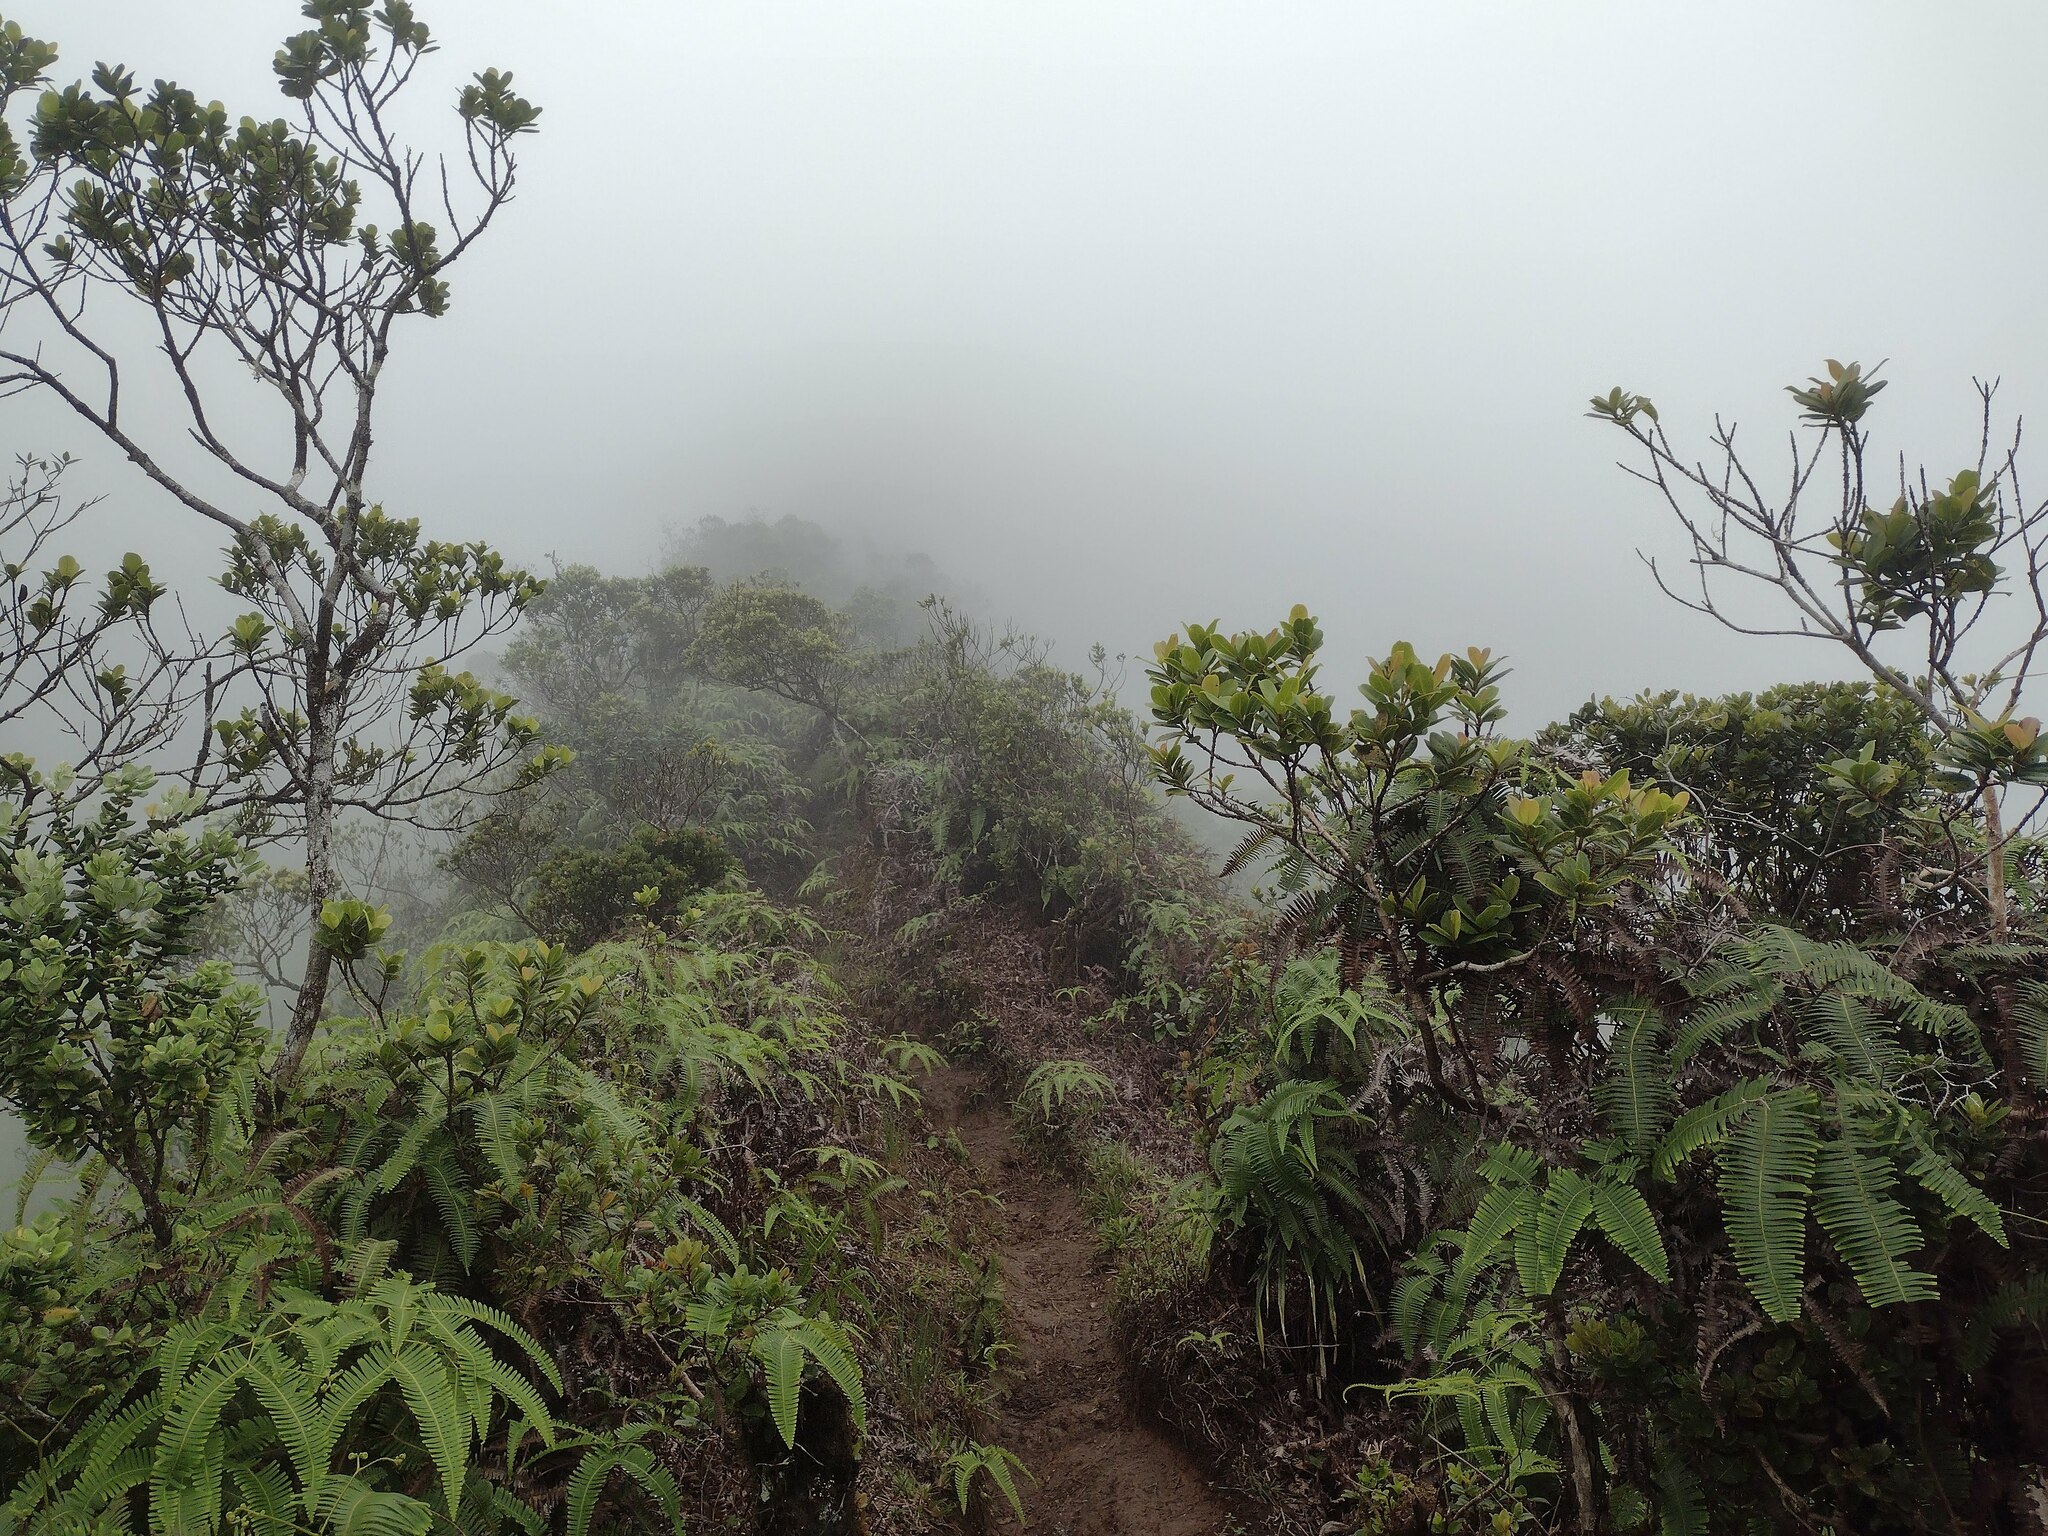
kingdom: Plantae
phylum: Tracheophyta
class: Polypodiopsida
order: Gleicheniales
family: Gleicheniaceae
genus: Dicranopteris
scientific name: Dicranopteris linearis
